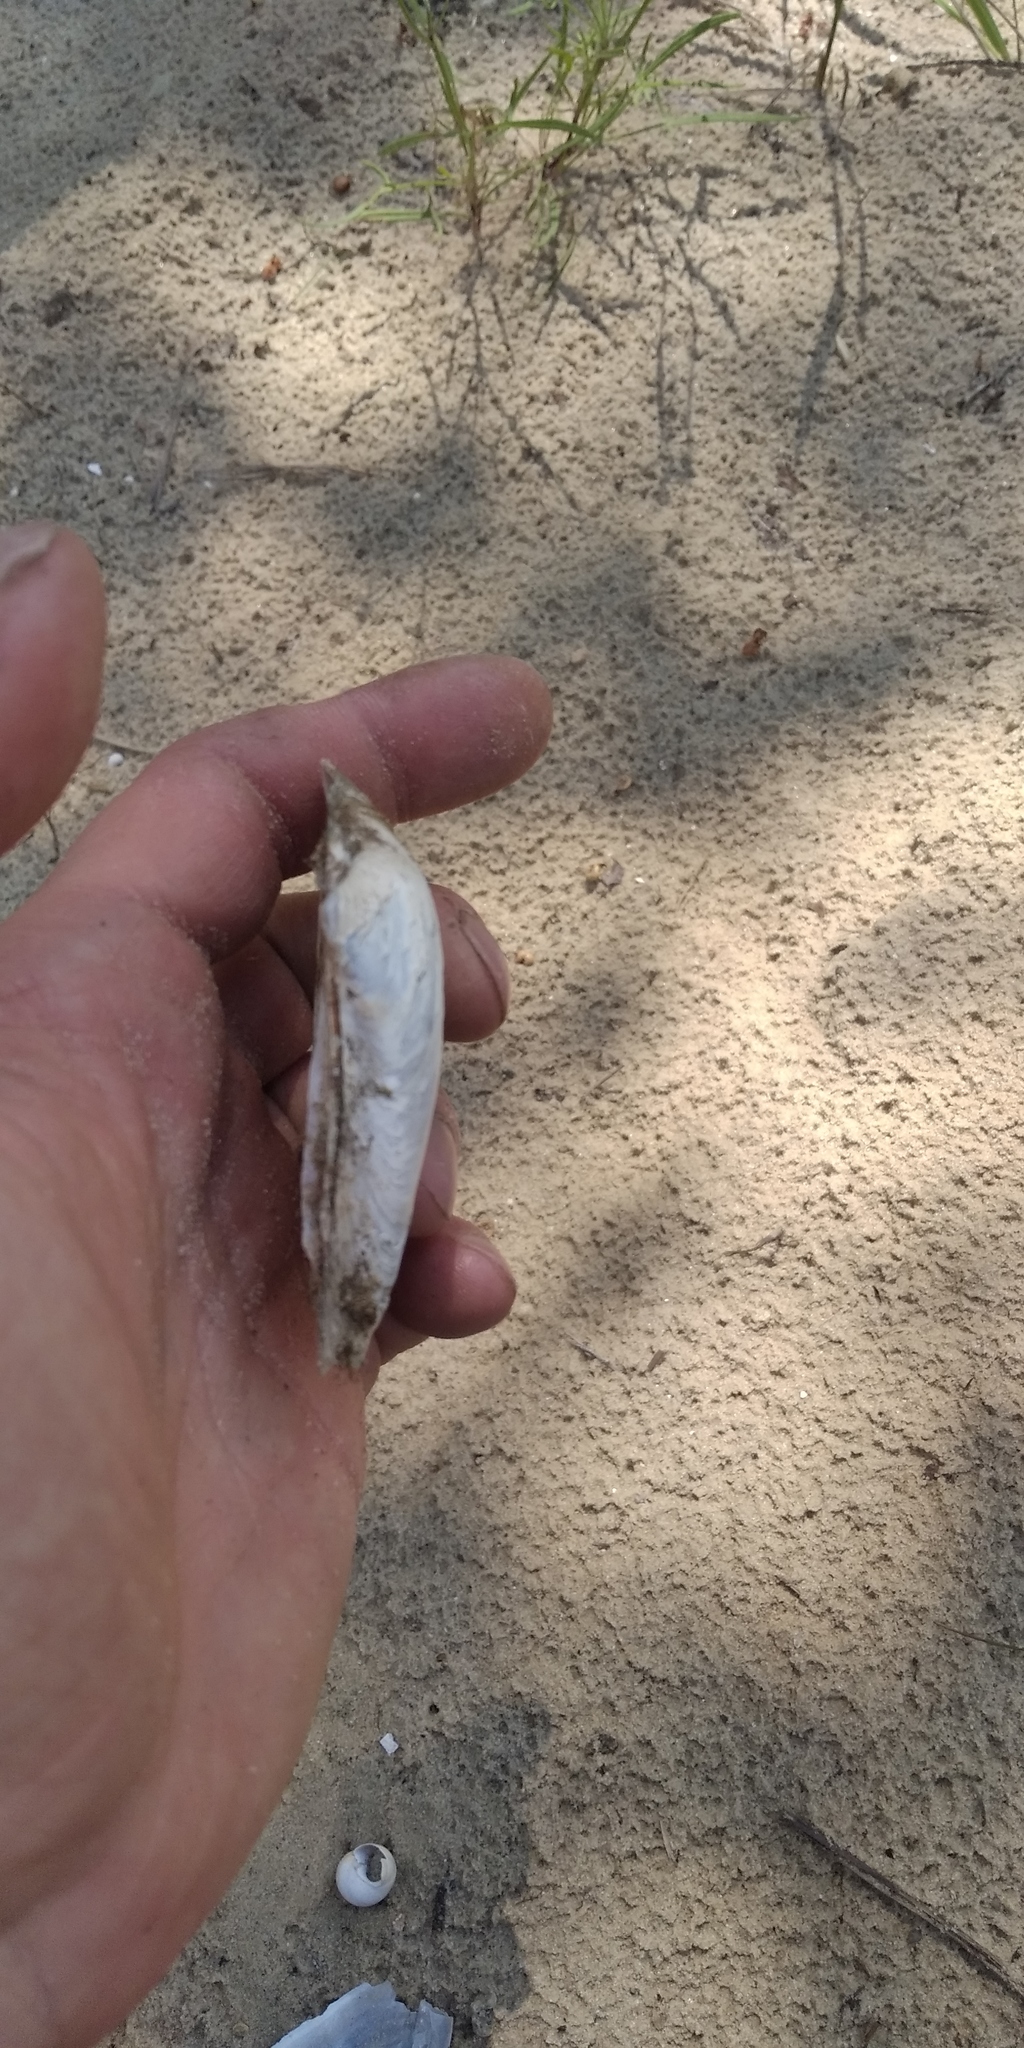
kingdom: Animalia
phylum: Mollusca
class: Bivalvia
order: Unionida
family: Unionidae
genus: Unio
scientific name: Unio tumidus
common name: Swollen river mussel
